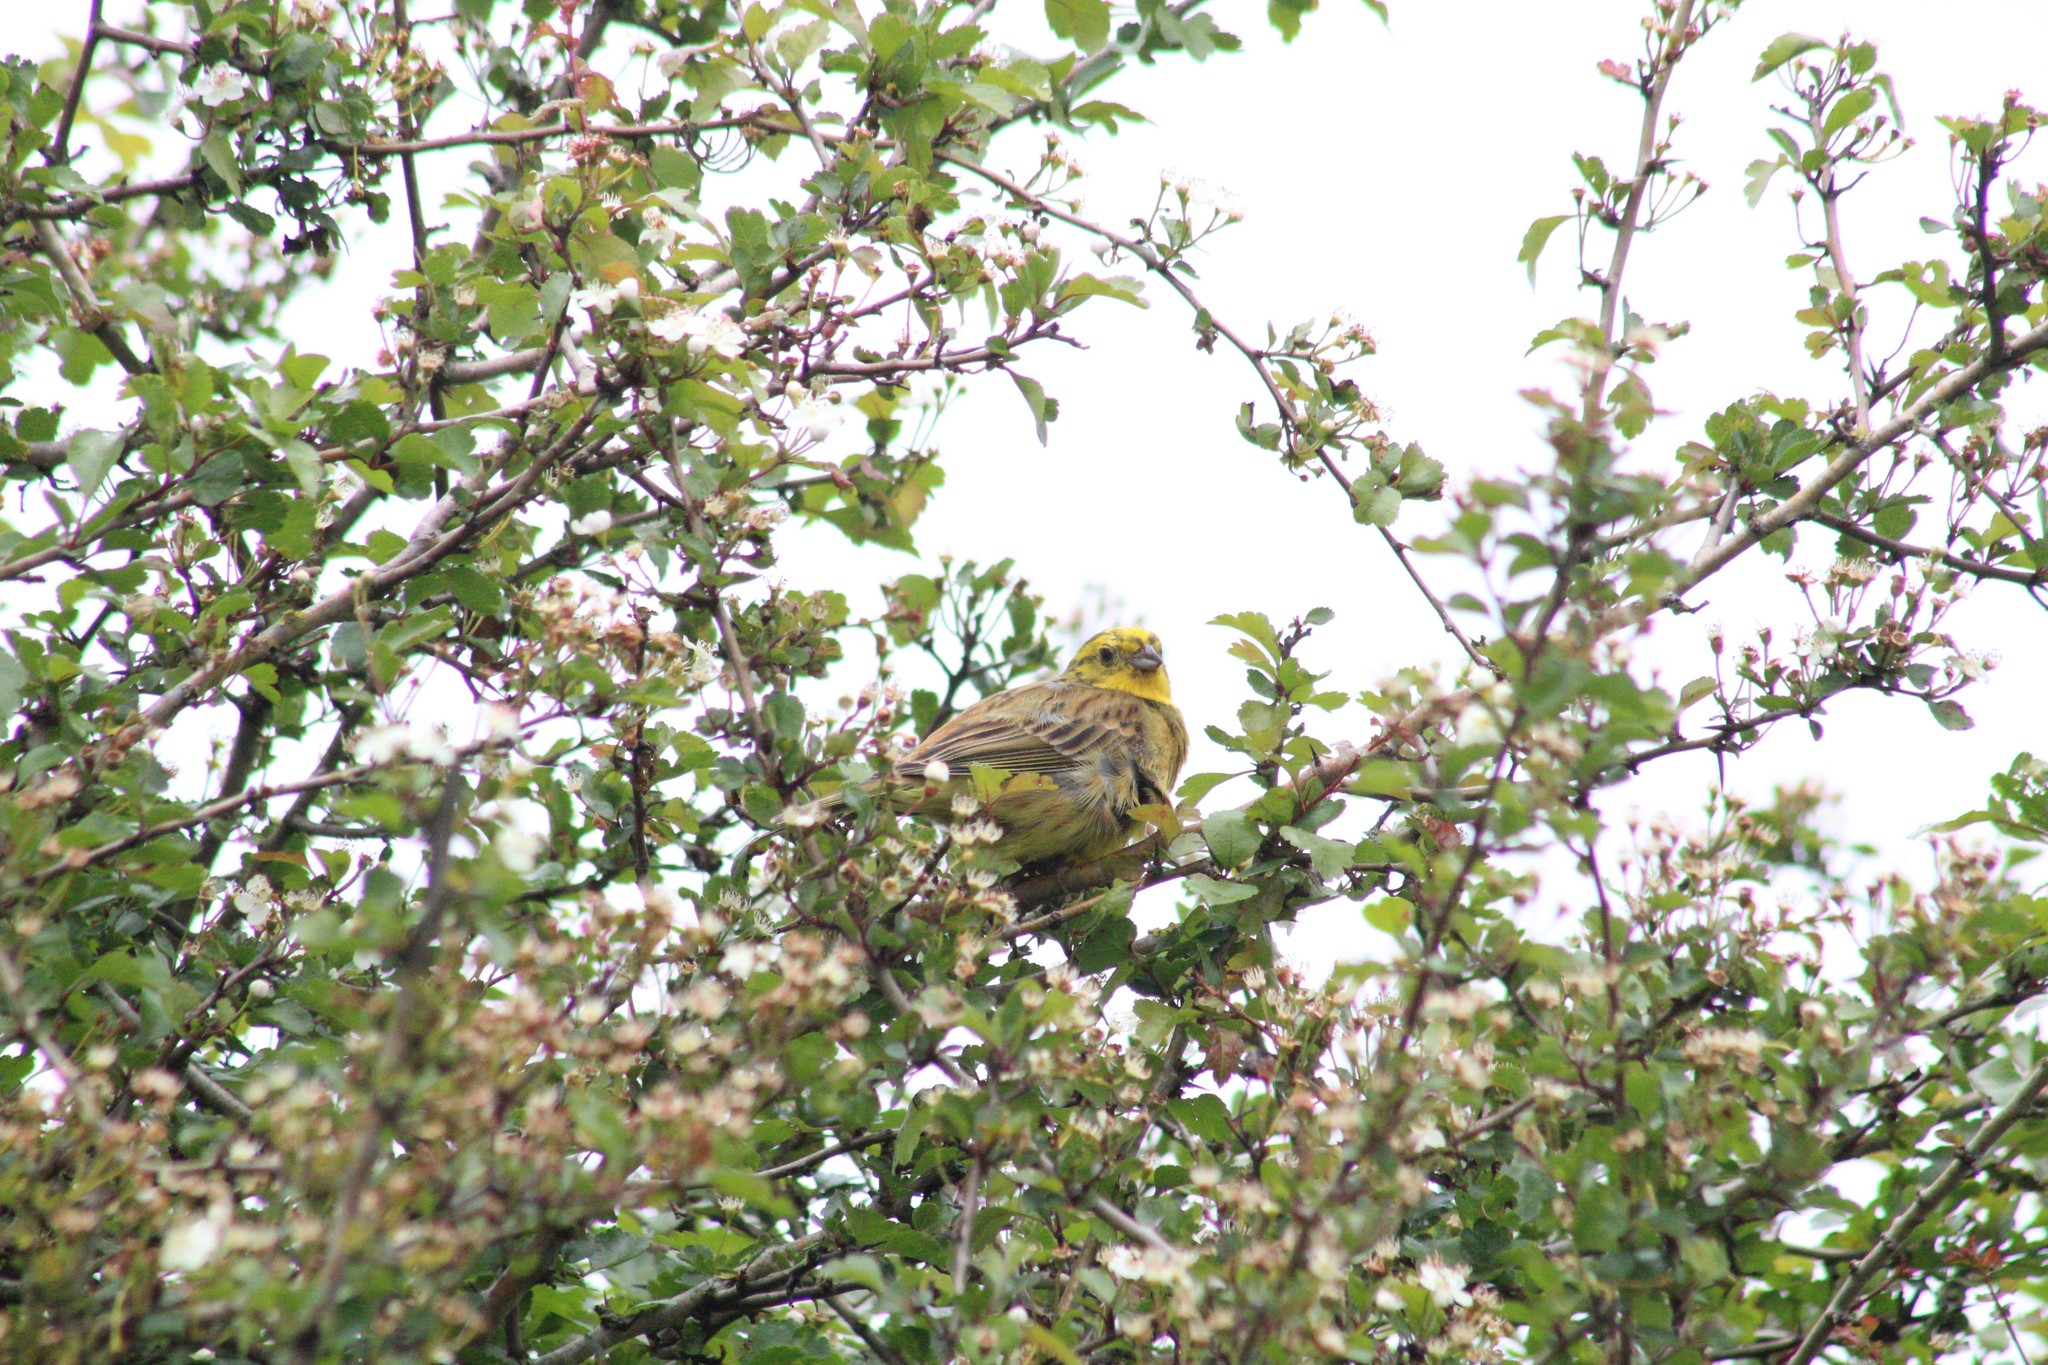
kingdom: Animalia
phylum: Chordata
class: Aves
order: Passeriformes
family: Emberizidae
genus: Emberiza
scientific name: Emberiza citrinella
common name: Yellowhammer
